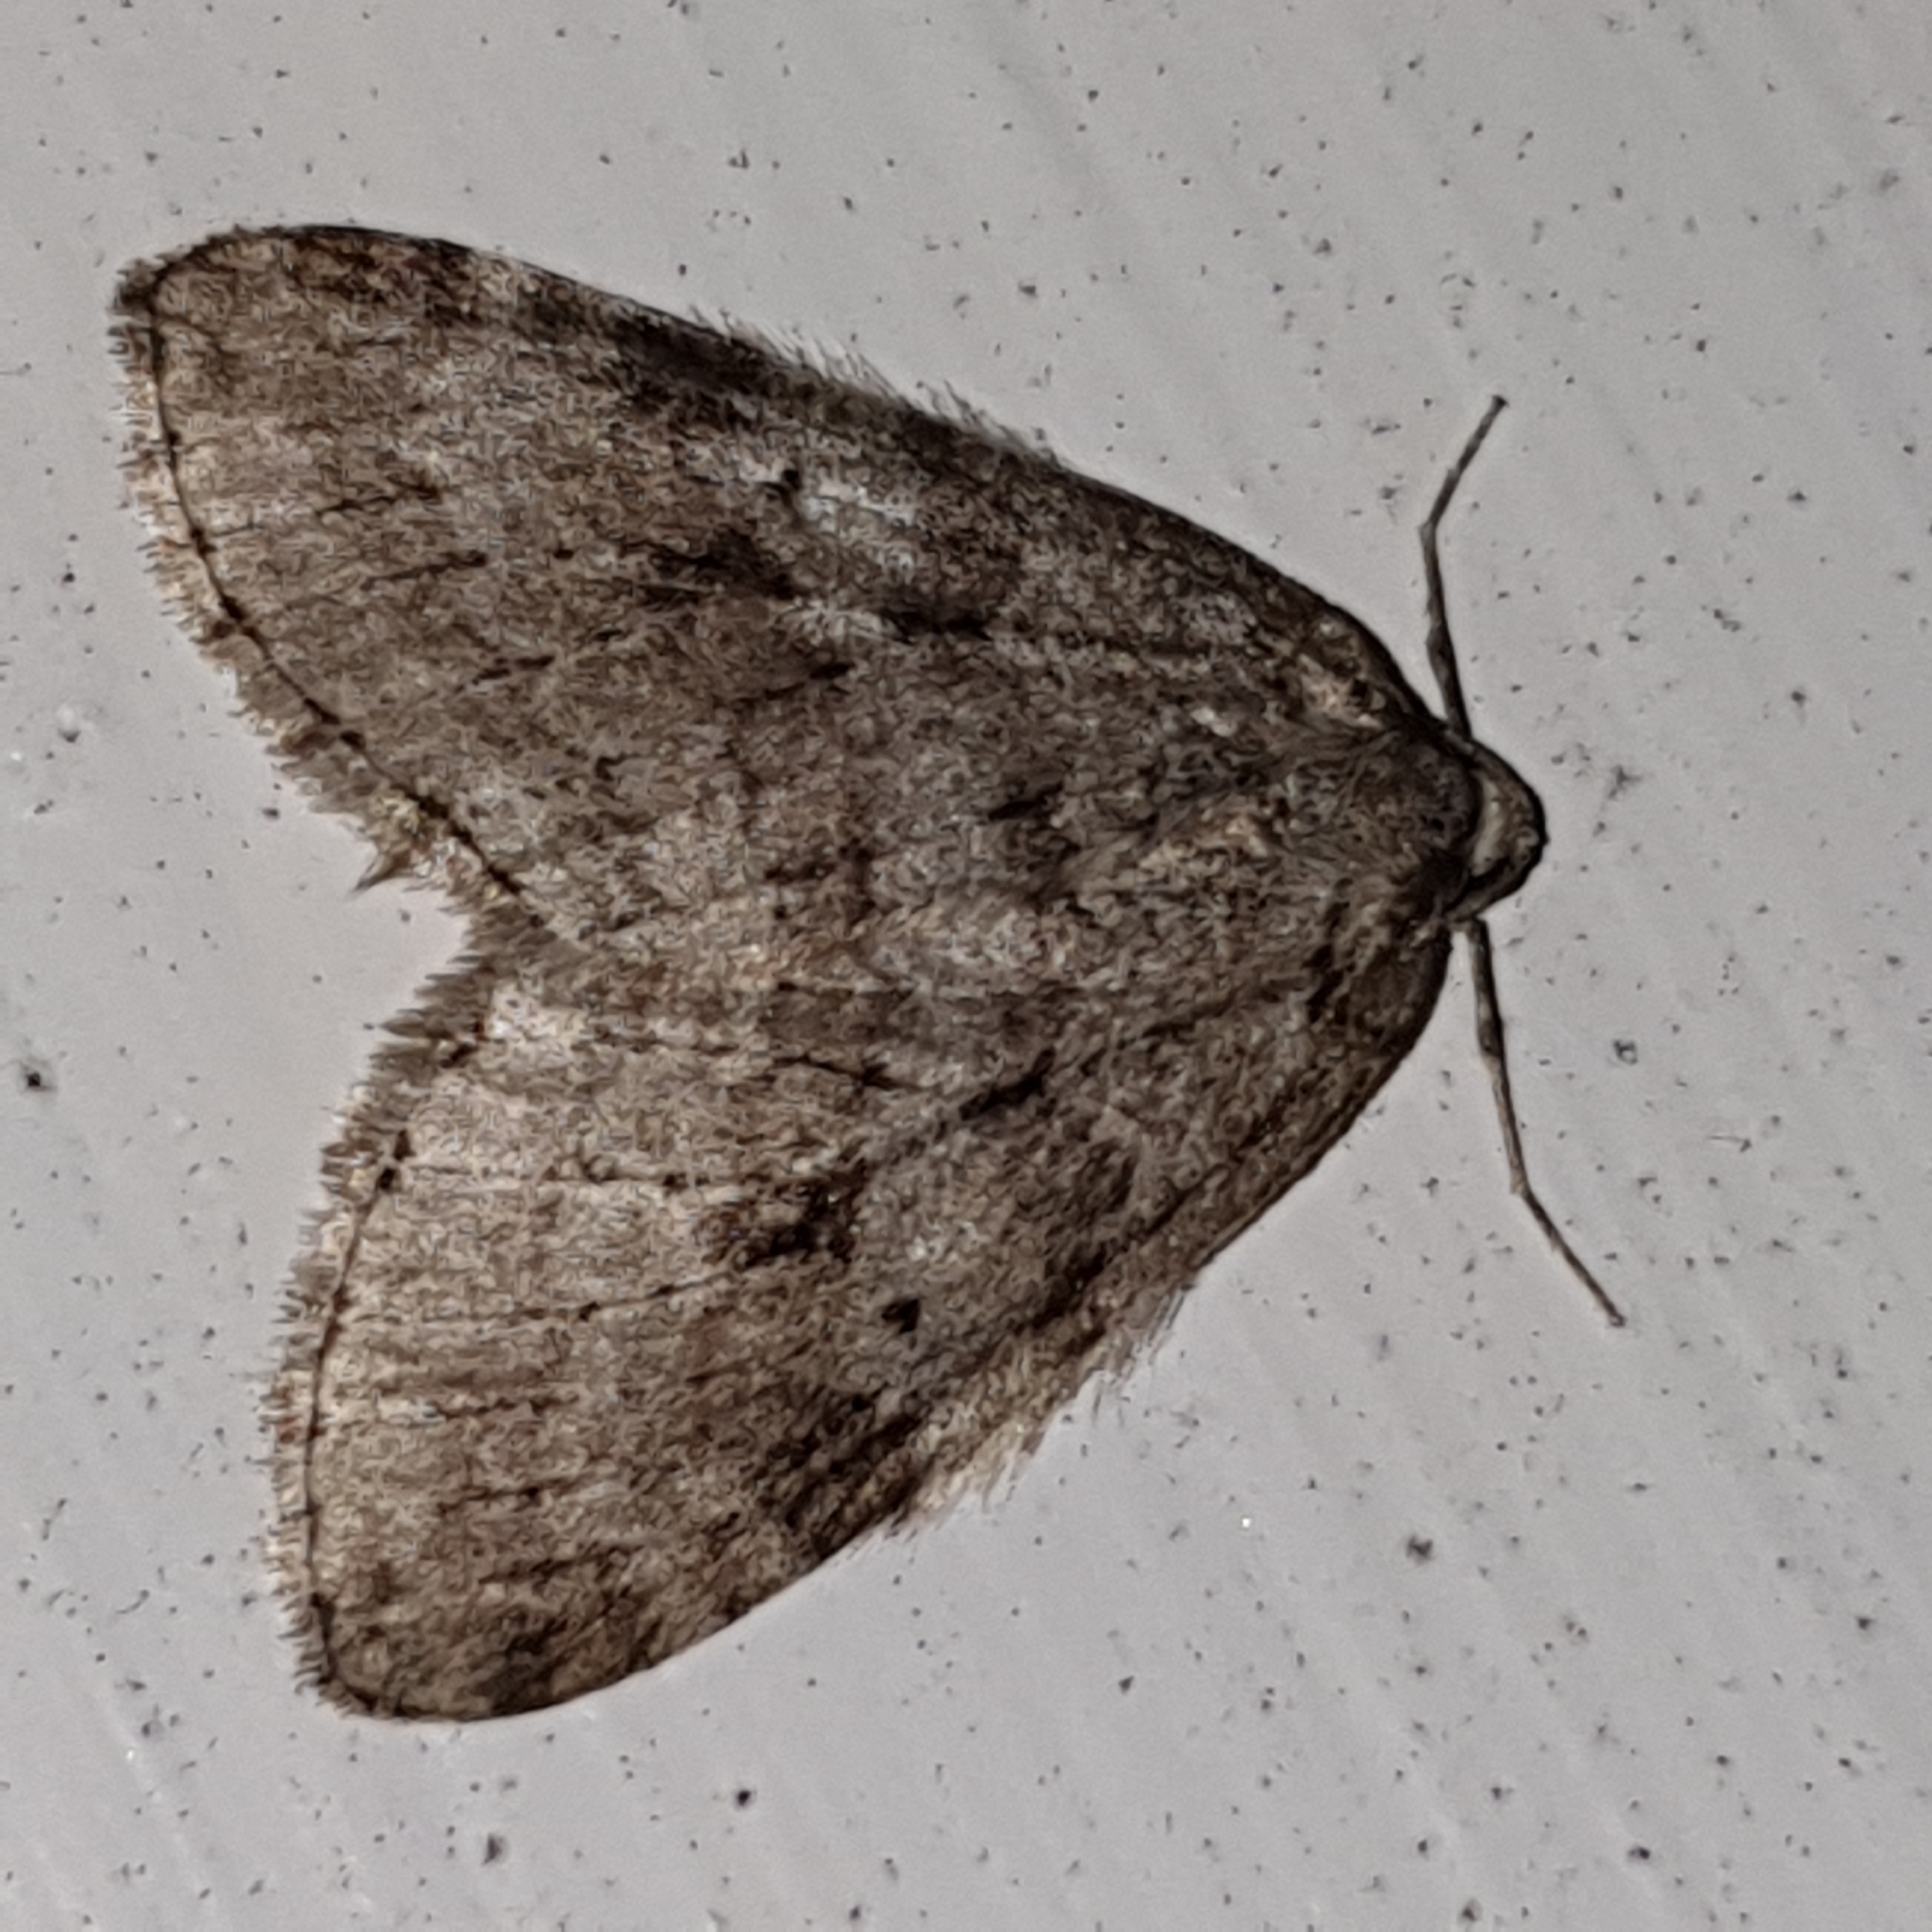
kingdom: Animalia
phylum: Arthropoda
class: Insecta
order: Lepidoptera
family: Geometridae
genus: Epirrita
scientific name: Epirrita autumnata
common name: Autumnal moth
